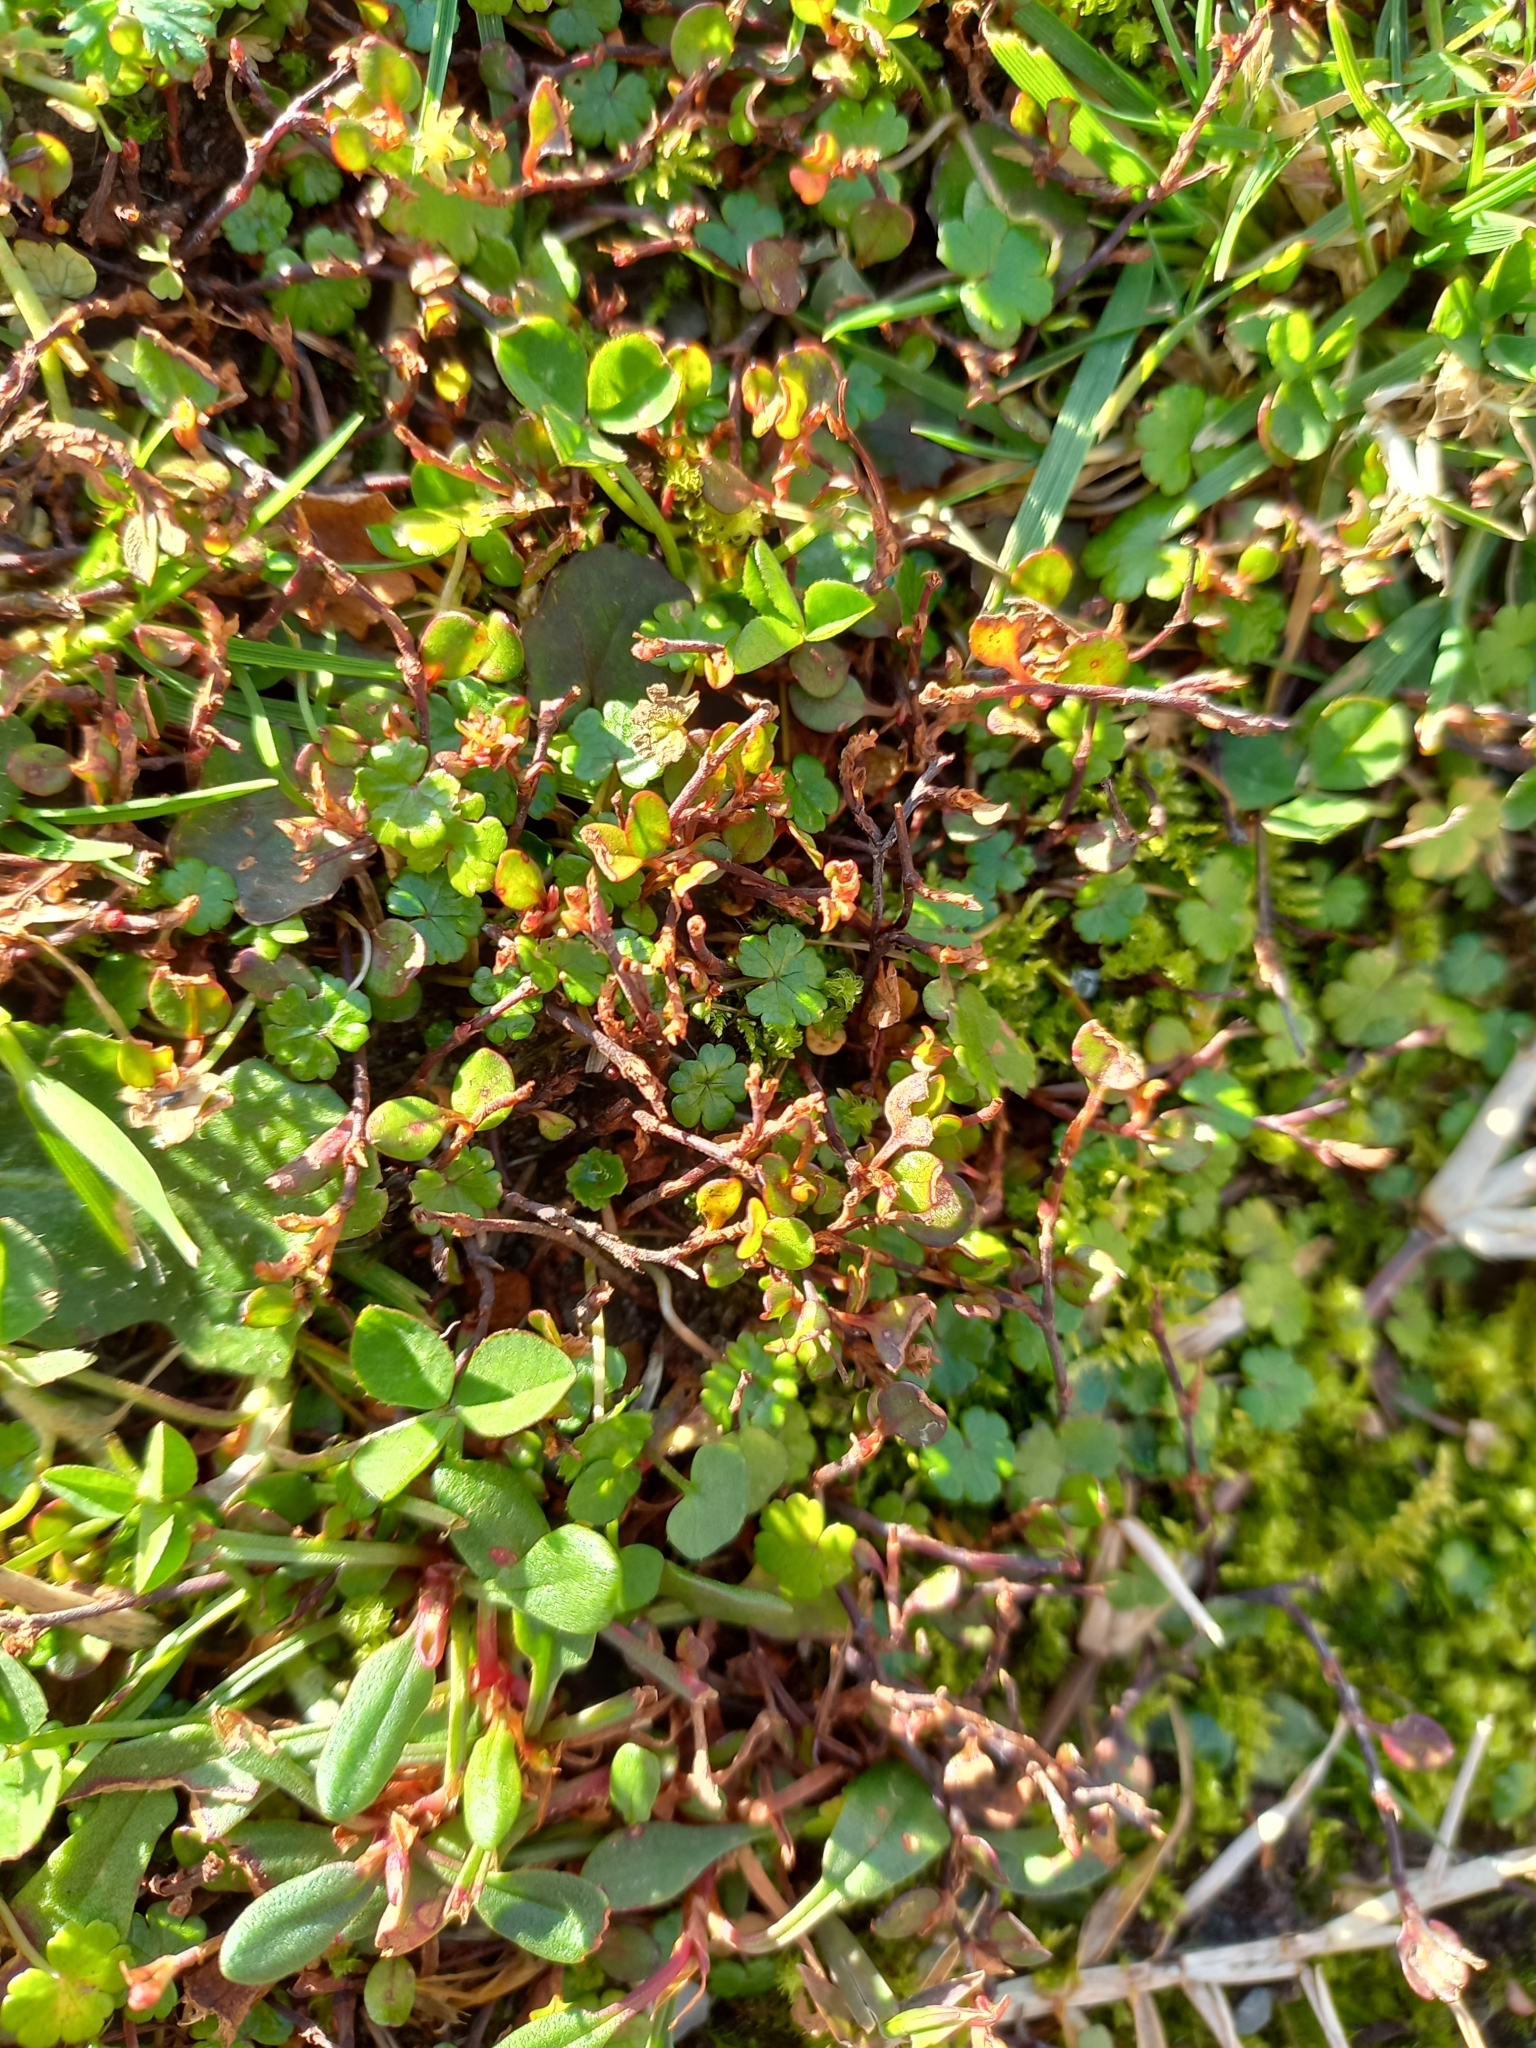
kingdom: Plantae
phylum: Tracheophyta
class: Magnoliopsida
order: Caryophyllales
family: Polygonaceae
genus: Muehlenbeckia
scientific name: Muehlenbeckia axillaris
